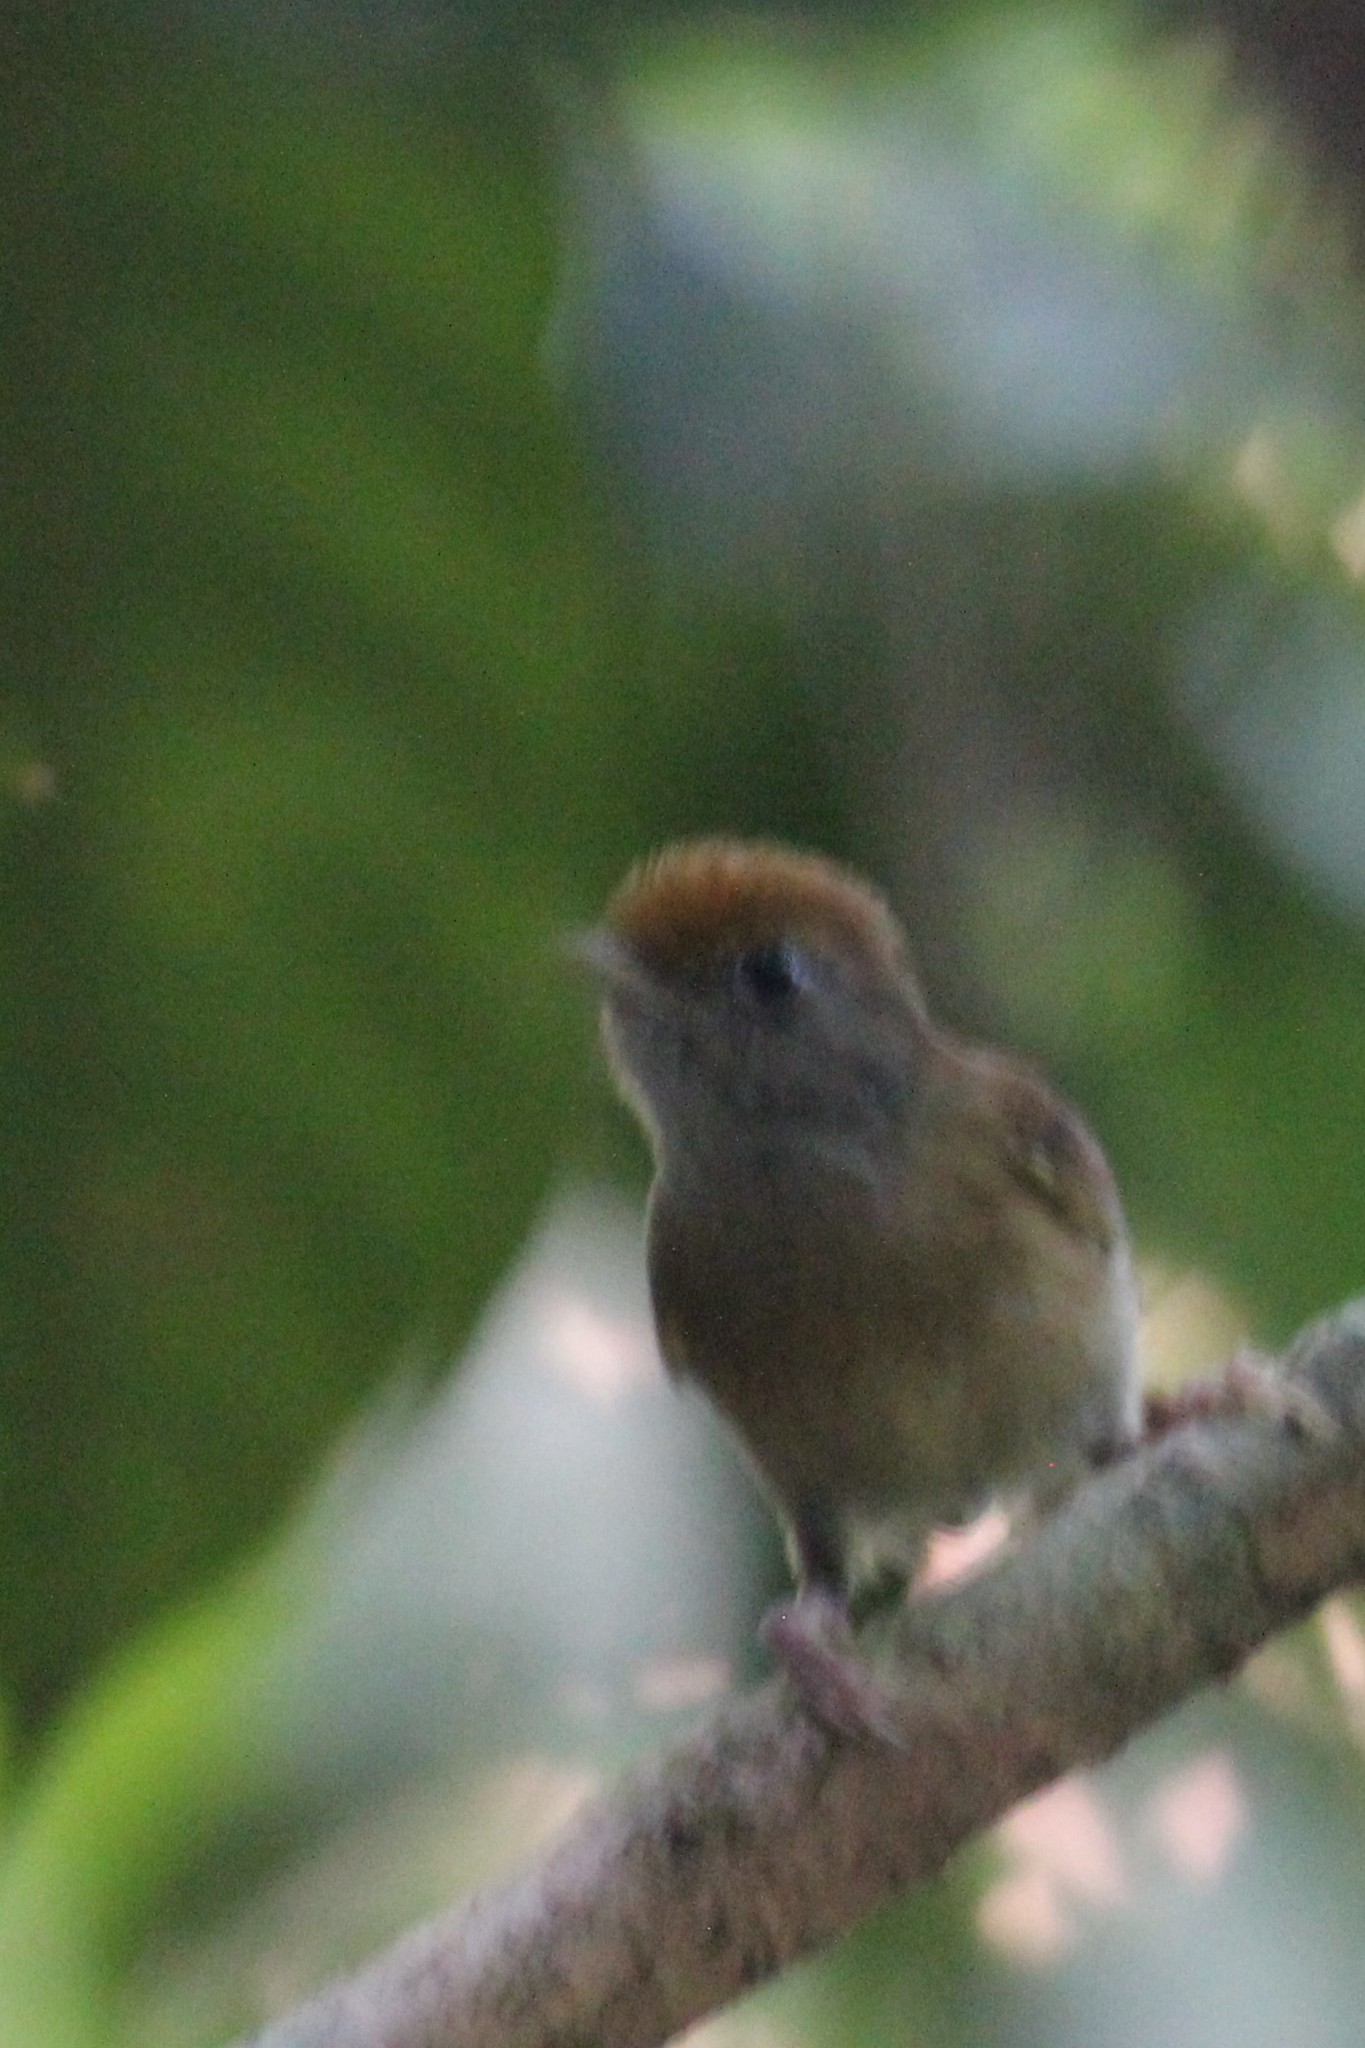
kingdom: Animalia
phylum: Chordata
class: Aves
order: Passeriformes
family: Vireonidae
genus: Hylophilus
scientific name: Hylophilus ochraceiceps
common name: Tawny-crowned greenlet
